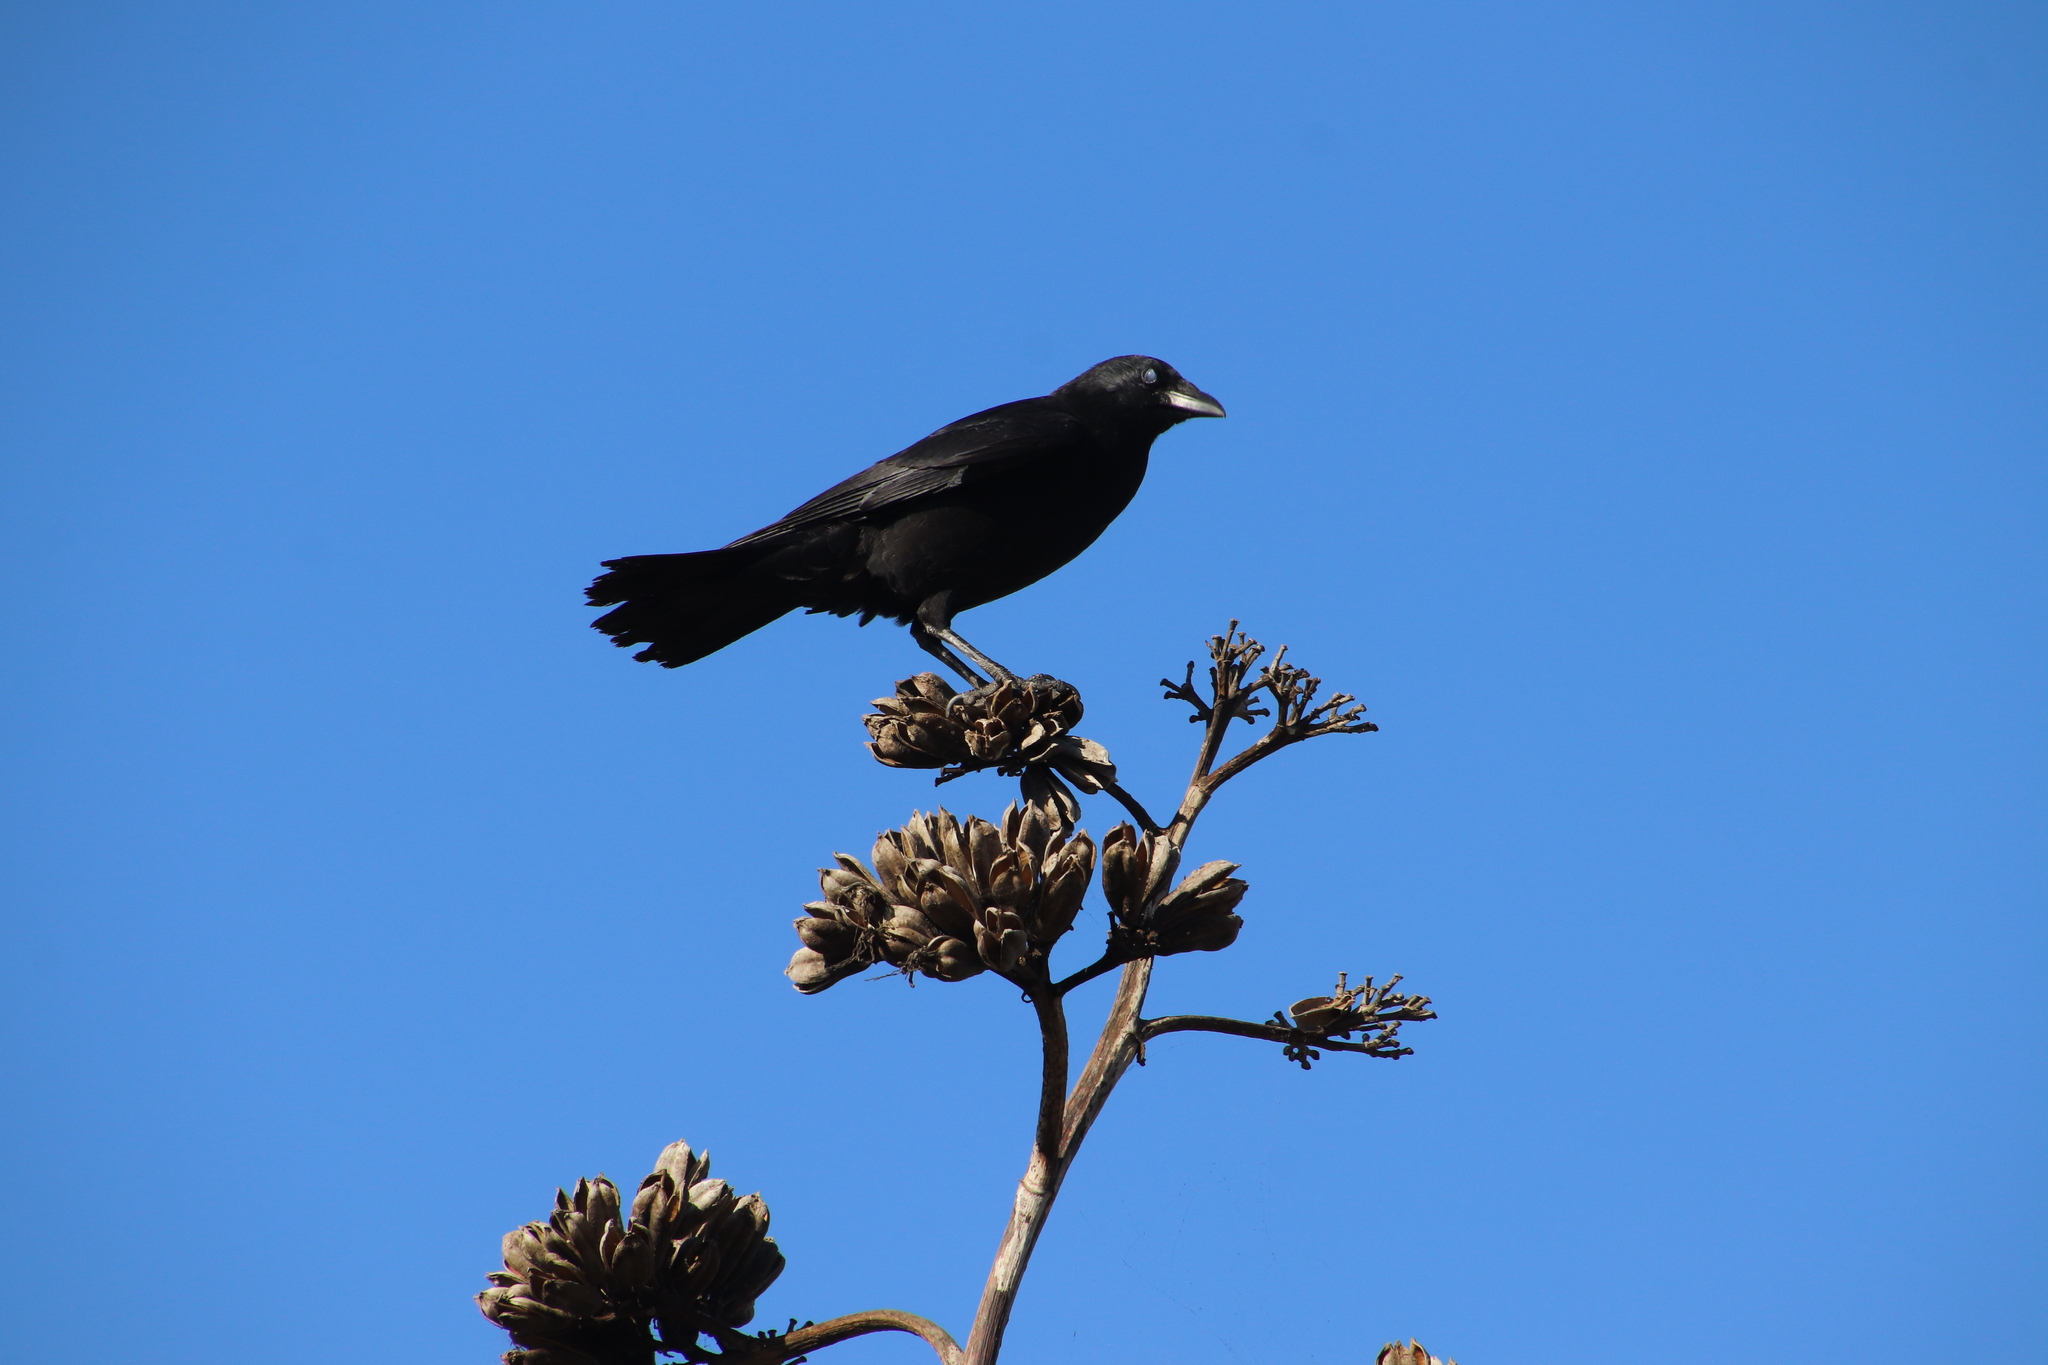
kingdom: Animalia
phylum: Chordata
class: Aves
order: Passeriformes
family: Corvidae
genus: Corvus
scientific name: Corvus brachyrhynchos
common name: American crow
